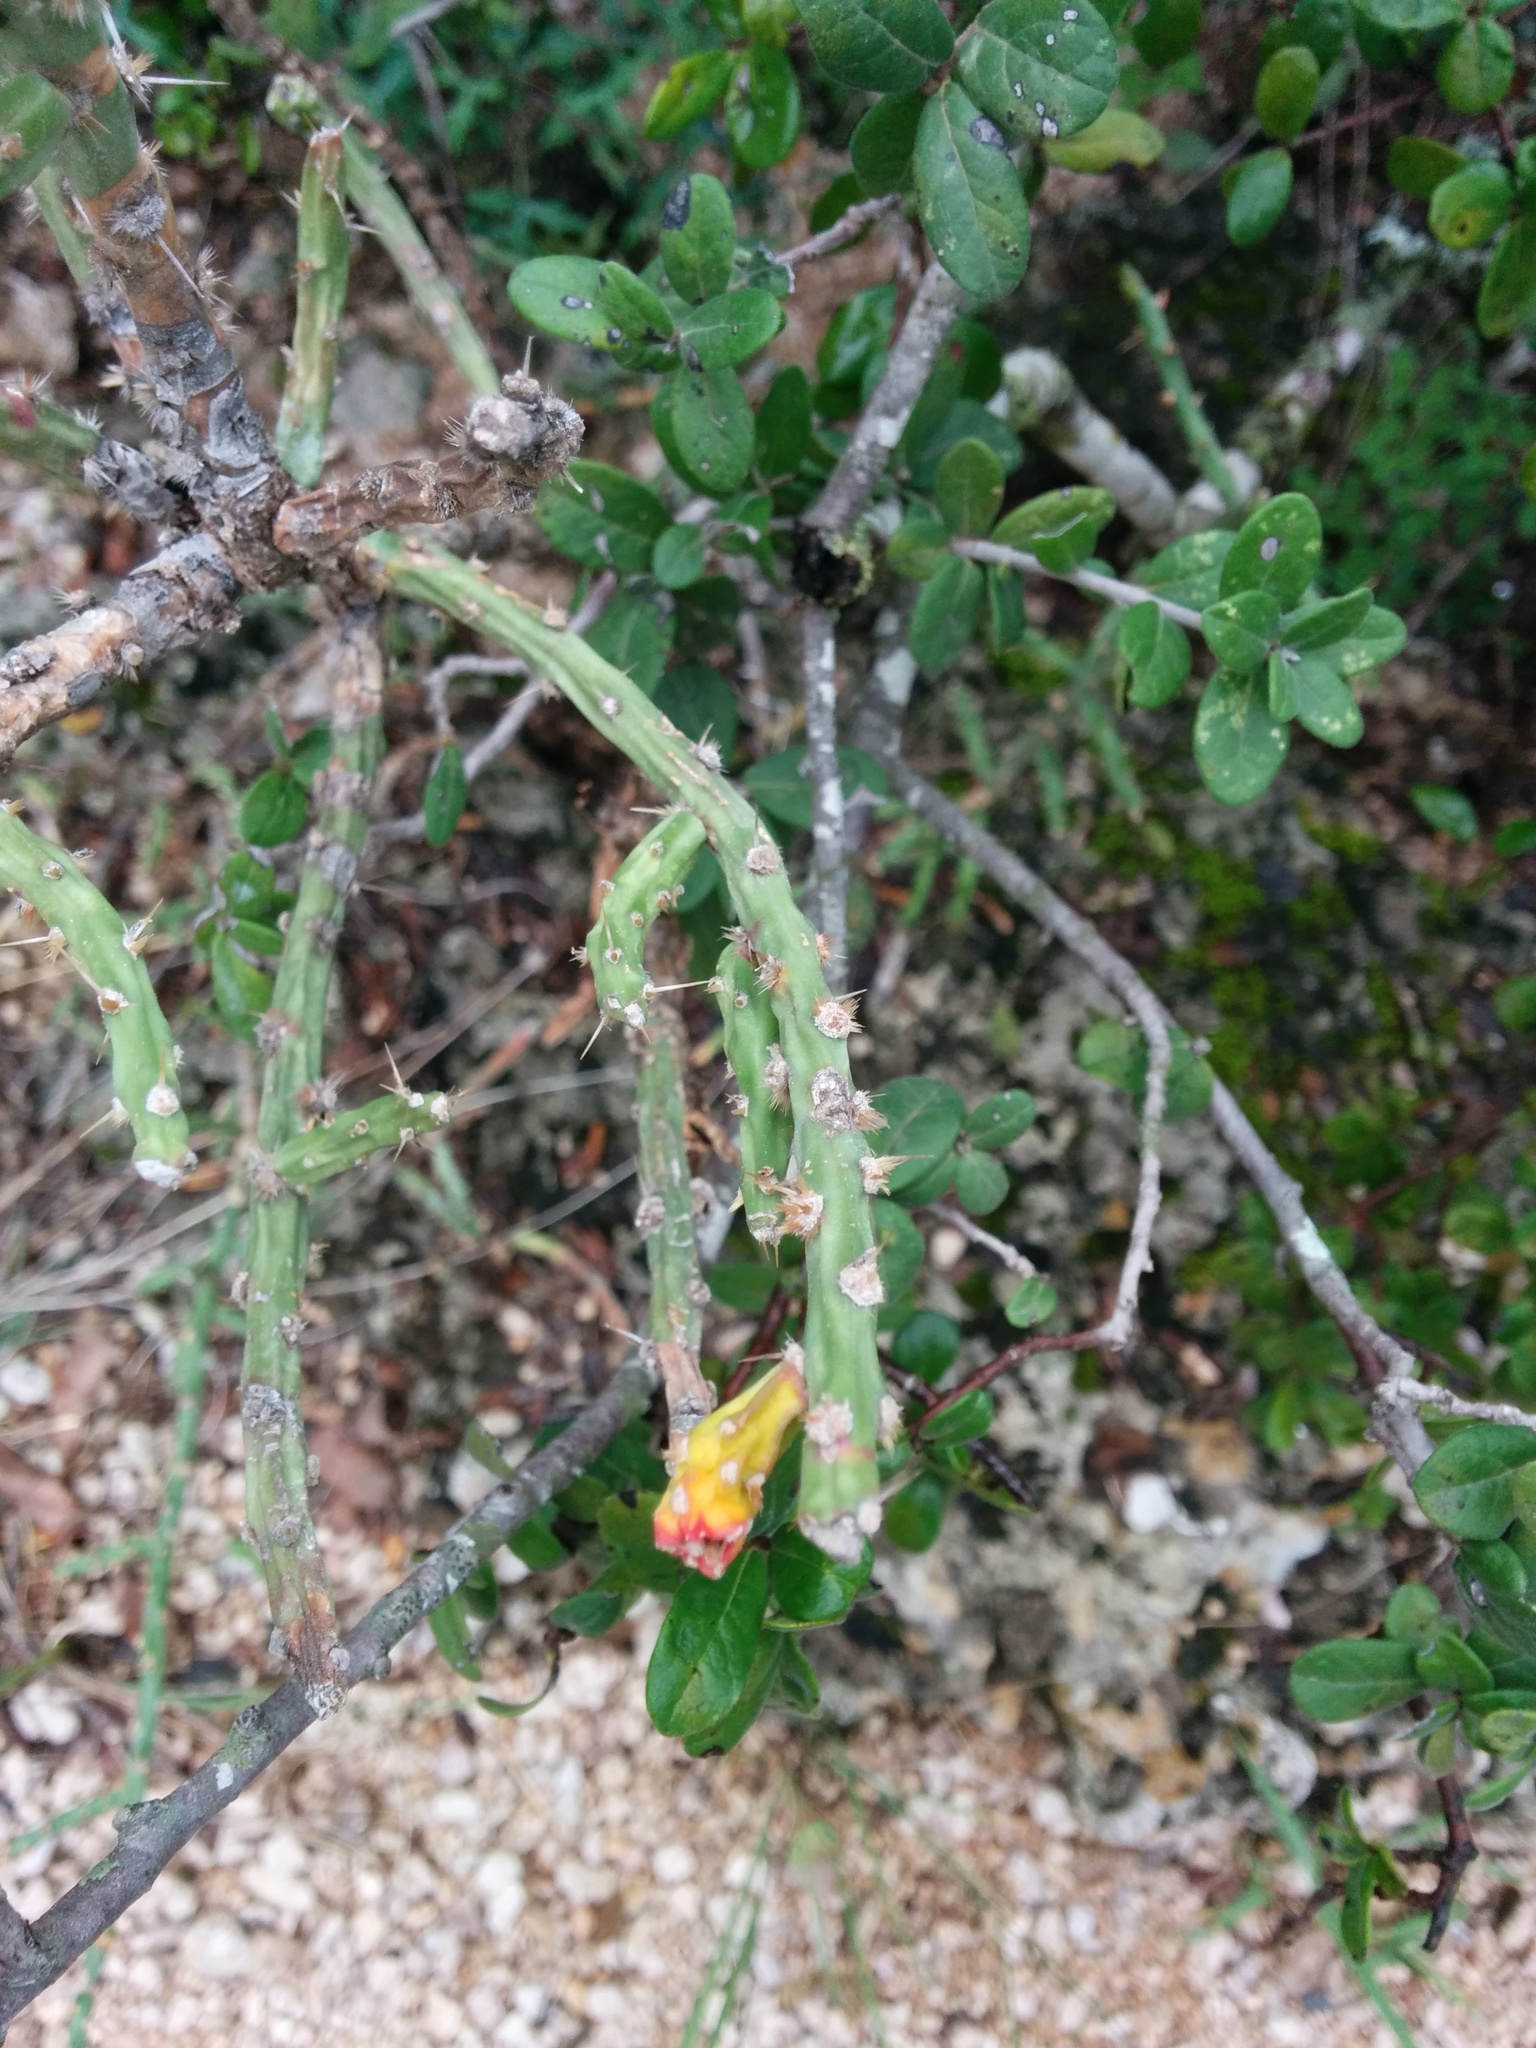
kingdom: Plantae
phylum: Tracheophyta
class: Magnoliopsida
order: Caryophyllales
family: Cactaceae
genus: Cylindropuntia
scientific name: Cylindropuntia leptocaulis
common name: Christmas cactus
